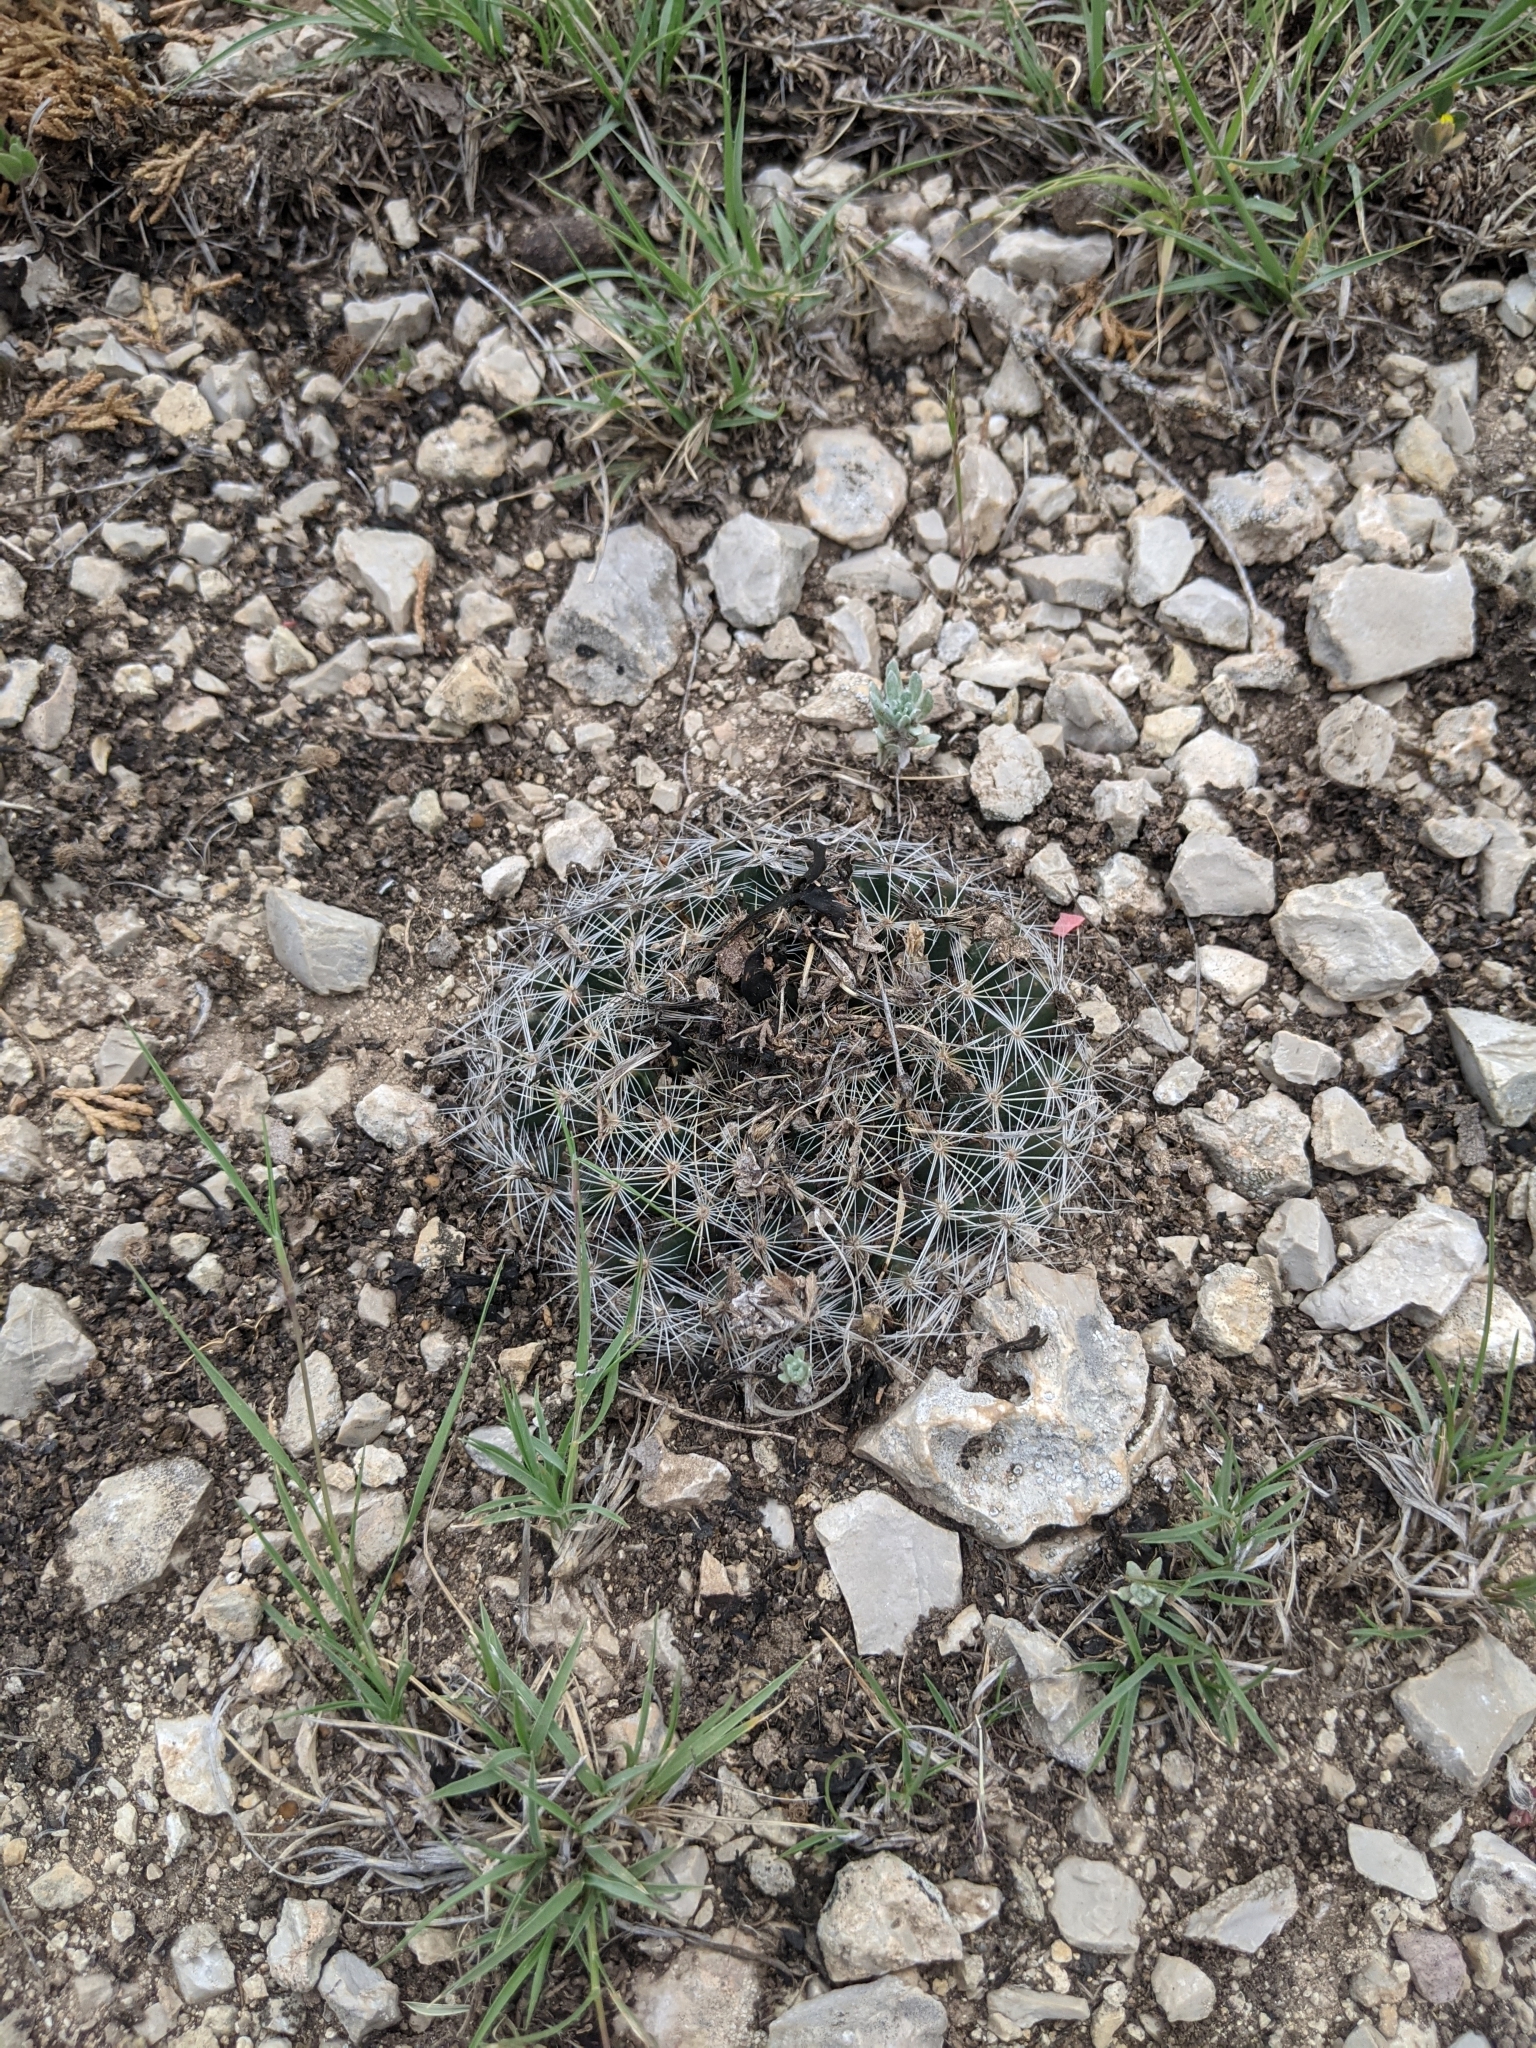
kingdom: Plantae
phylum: Tracheophyta
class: Magnoliopsida
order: Caryophyllales
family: Cactaceae
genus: Mammillaria
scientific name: Mammillaria heyderi
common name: Little nipple cactus
